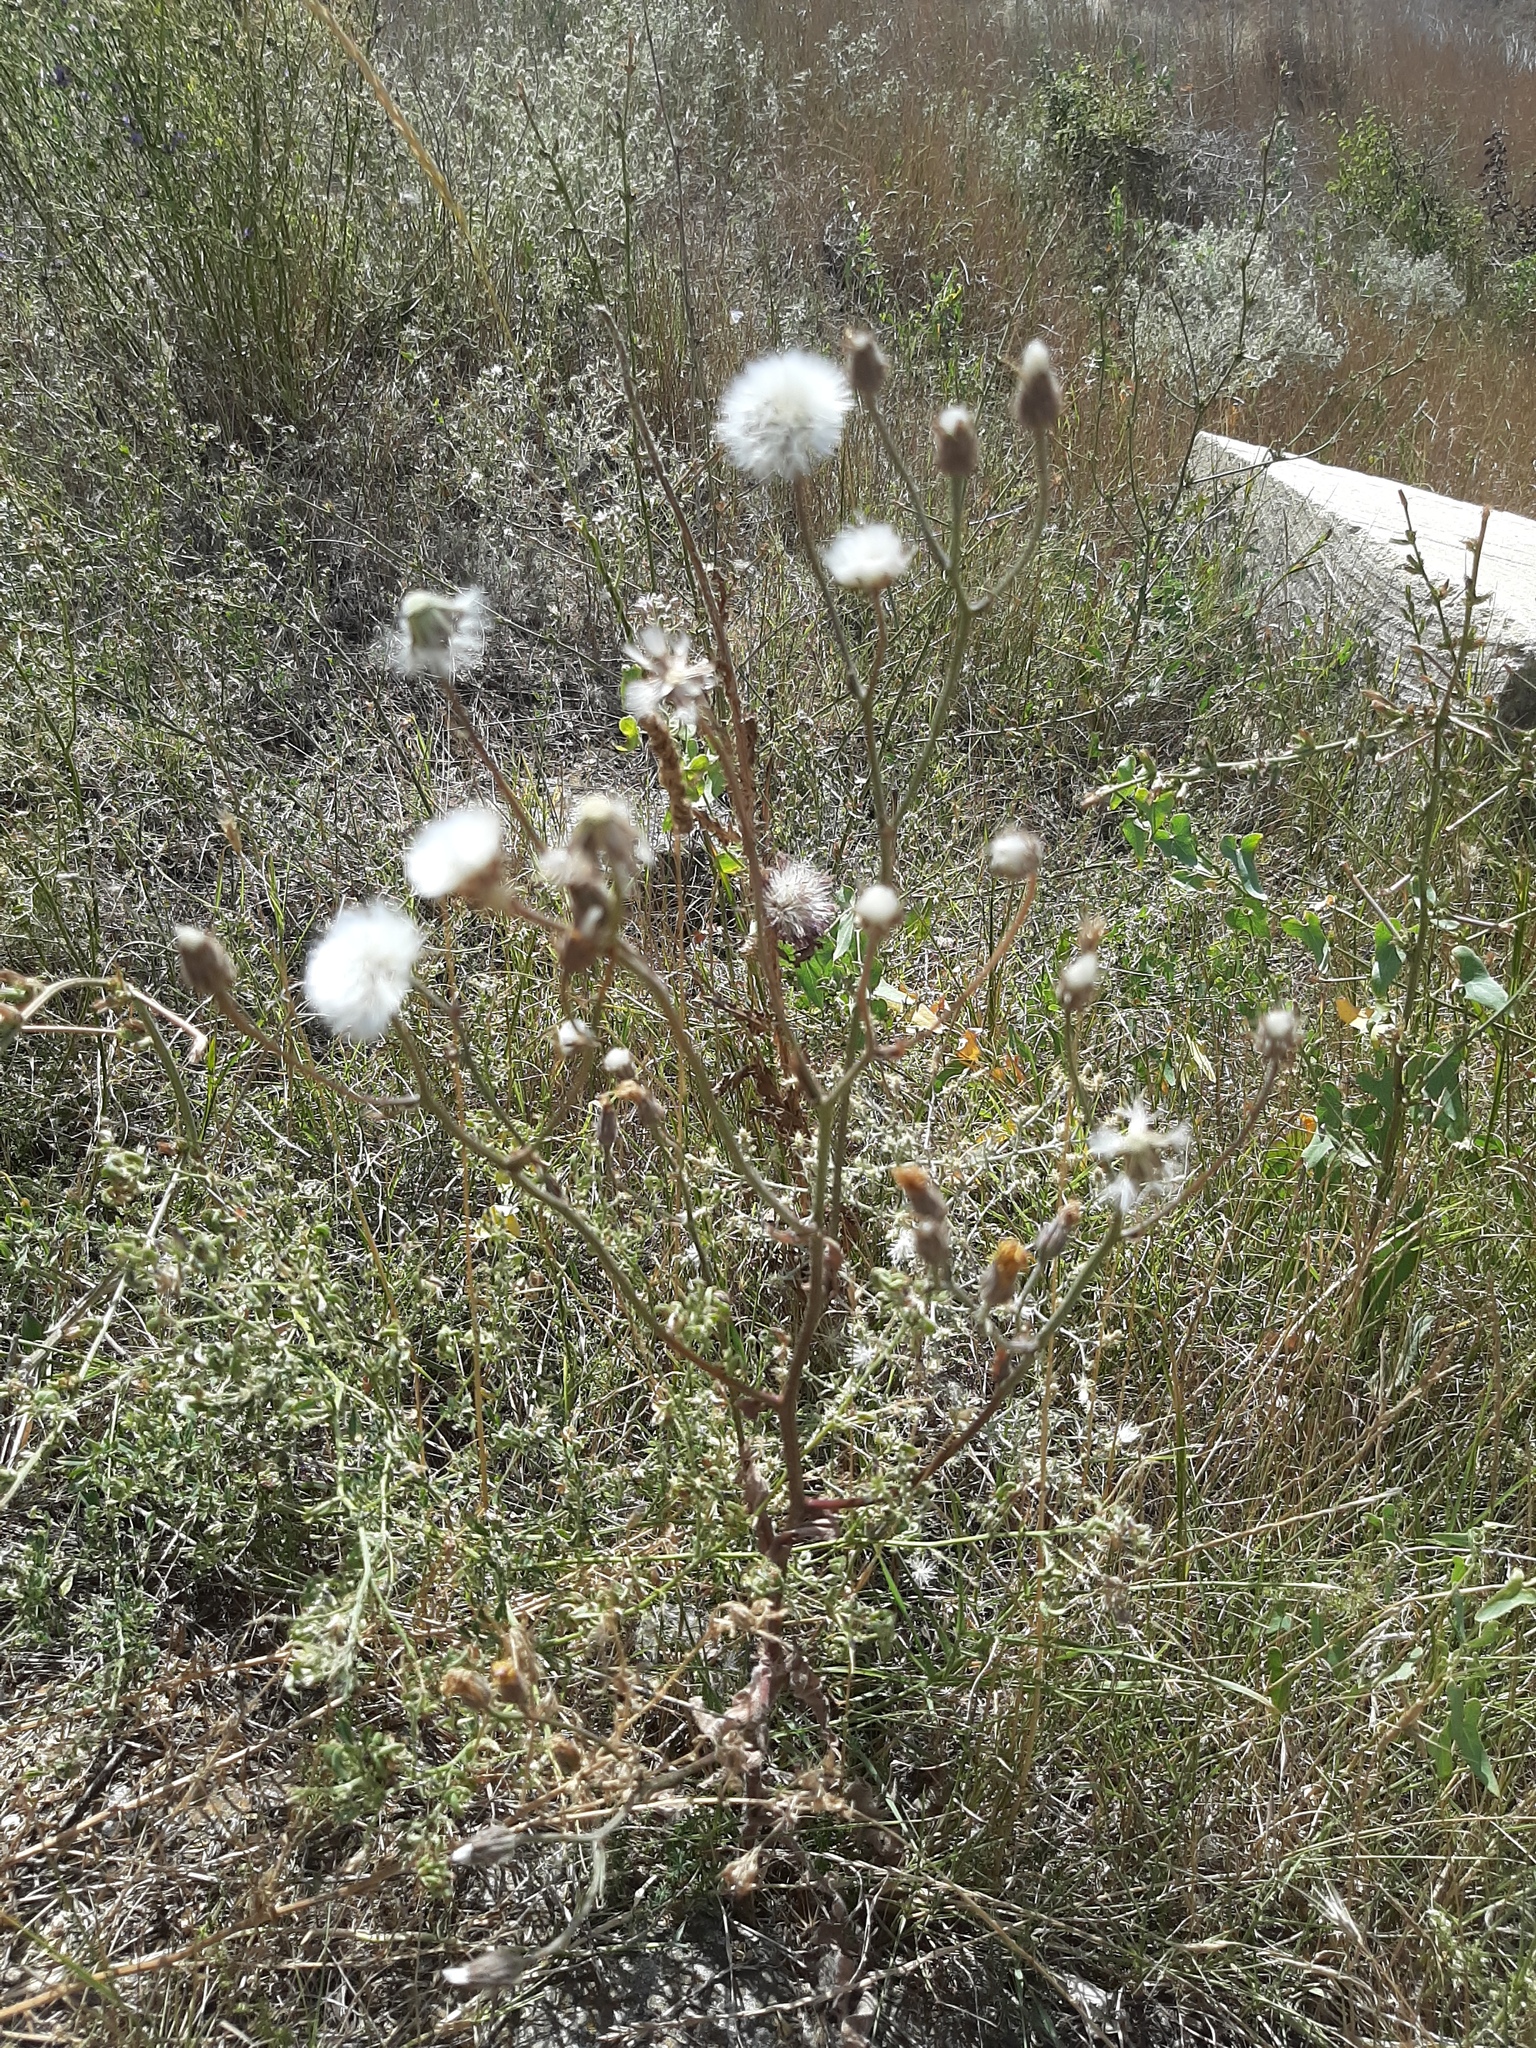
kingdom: Plantae
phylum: Tracheophyta
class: Magnoliopsida
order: Asterales
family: Asteraceae
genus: Picris
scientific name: Picris hieracioides
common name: Hawkweed oxtongue
